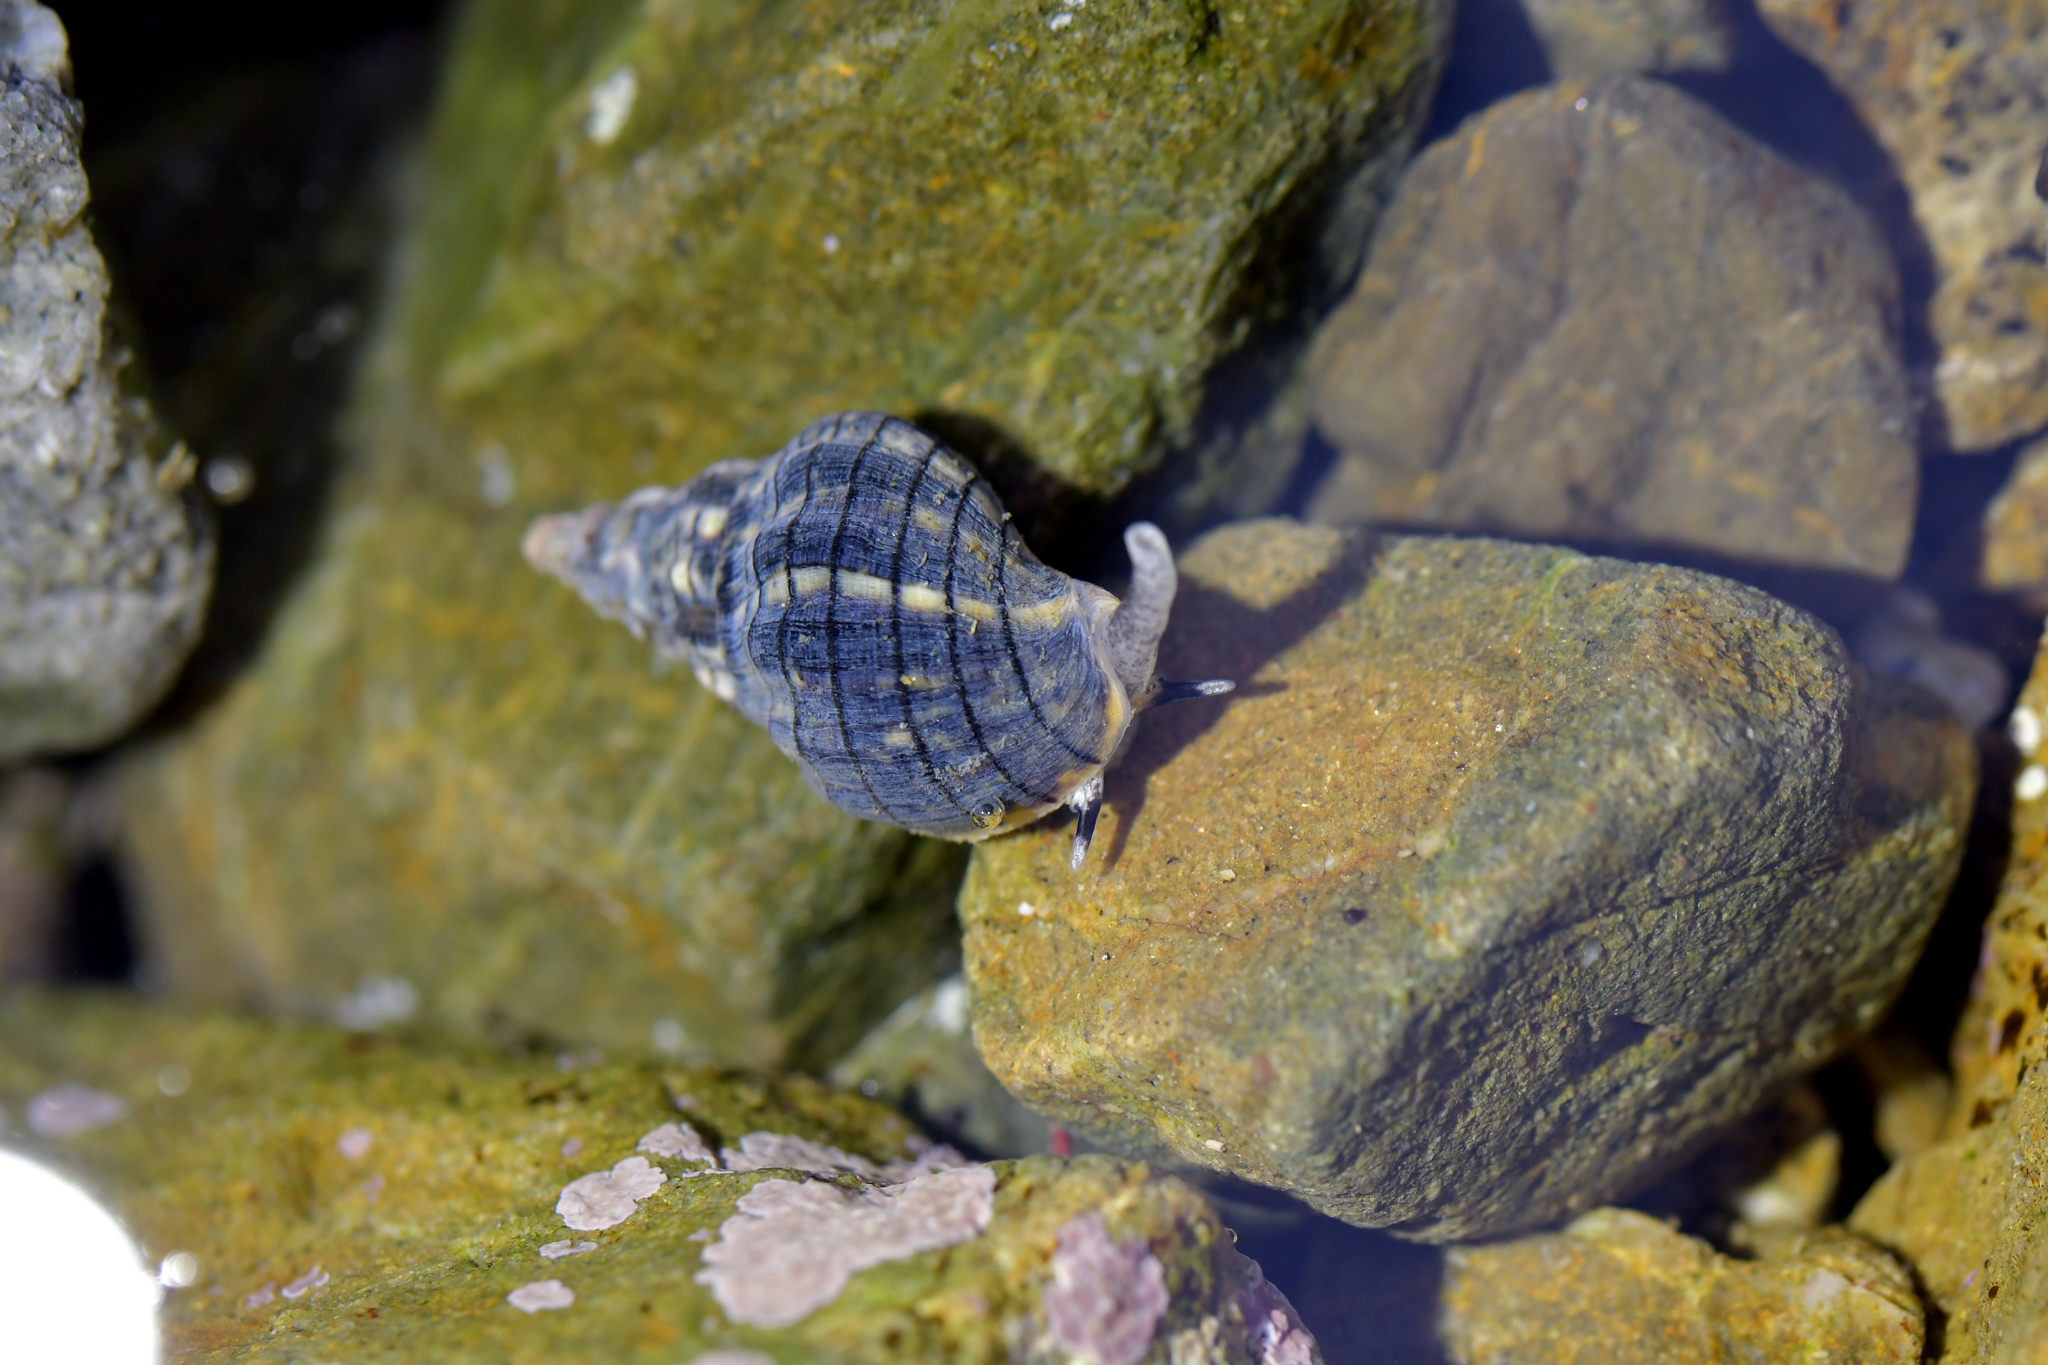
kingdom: Animalia
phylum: Mollusca
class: Gastropoda
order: Neogastropoda
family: Cominellidae
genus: Cominella
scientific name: Cominella virgata
